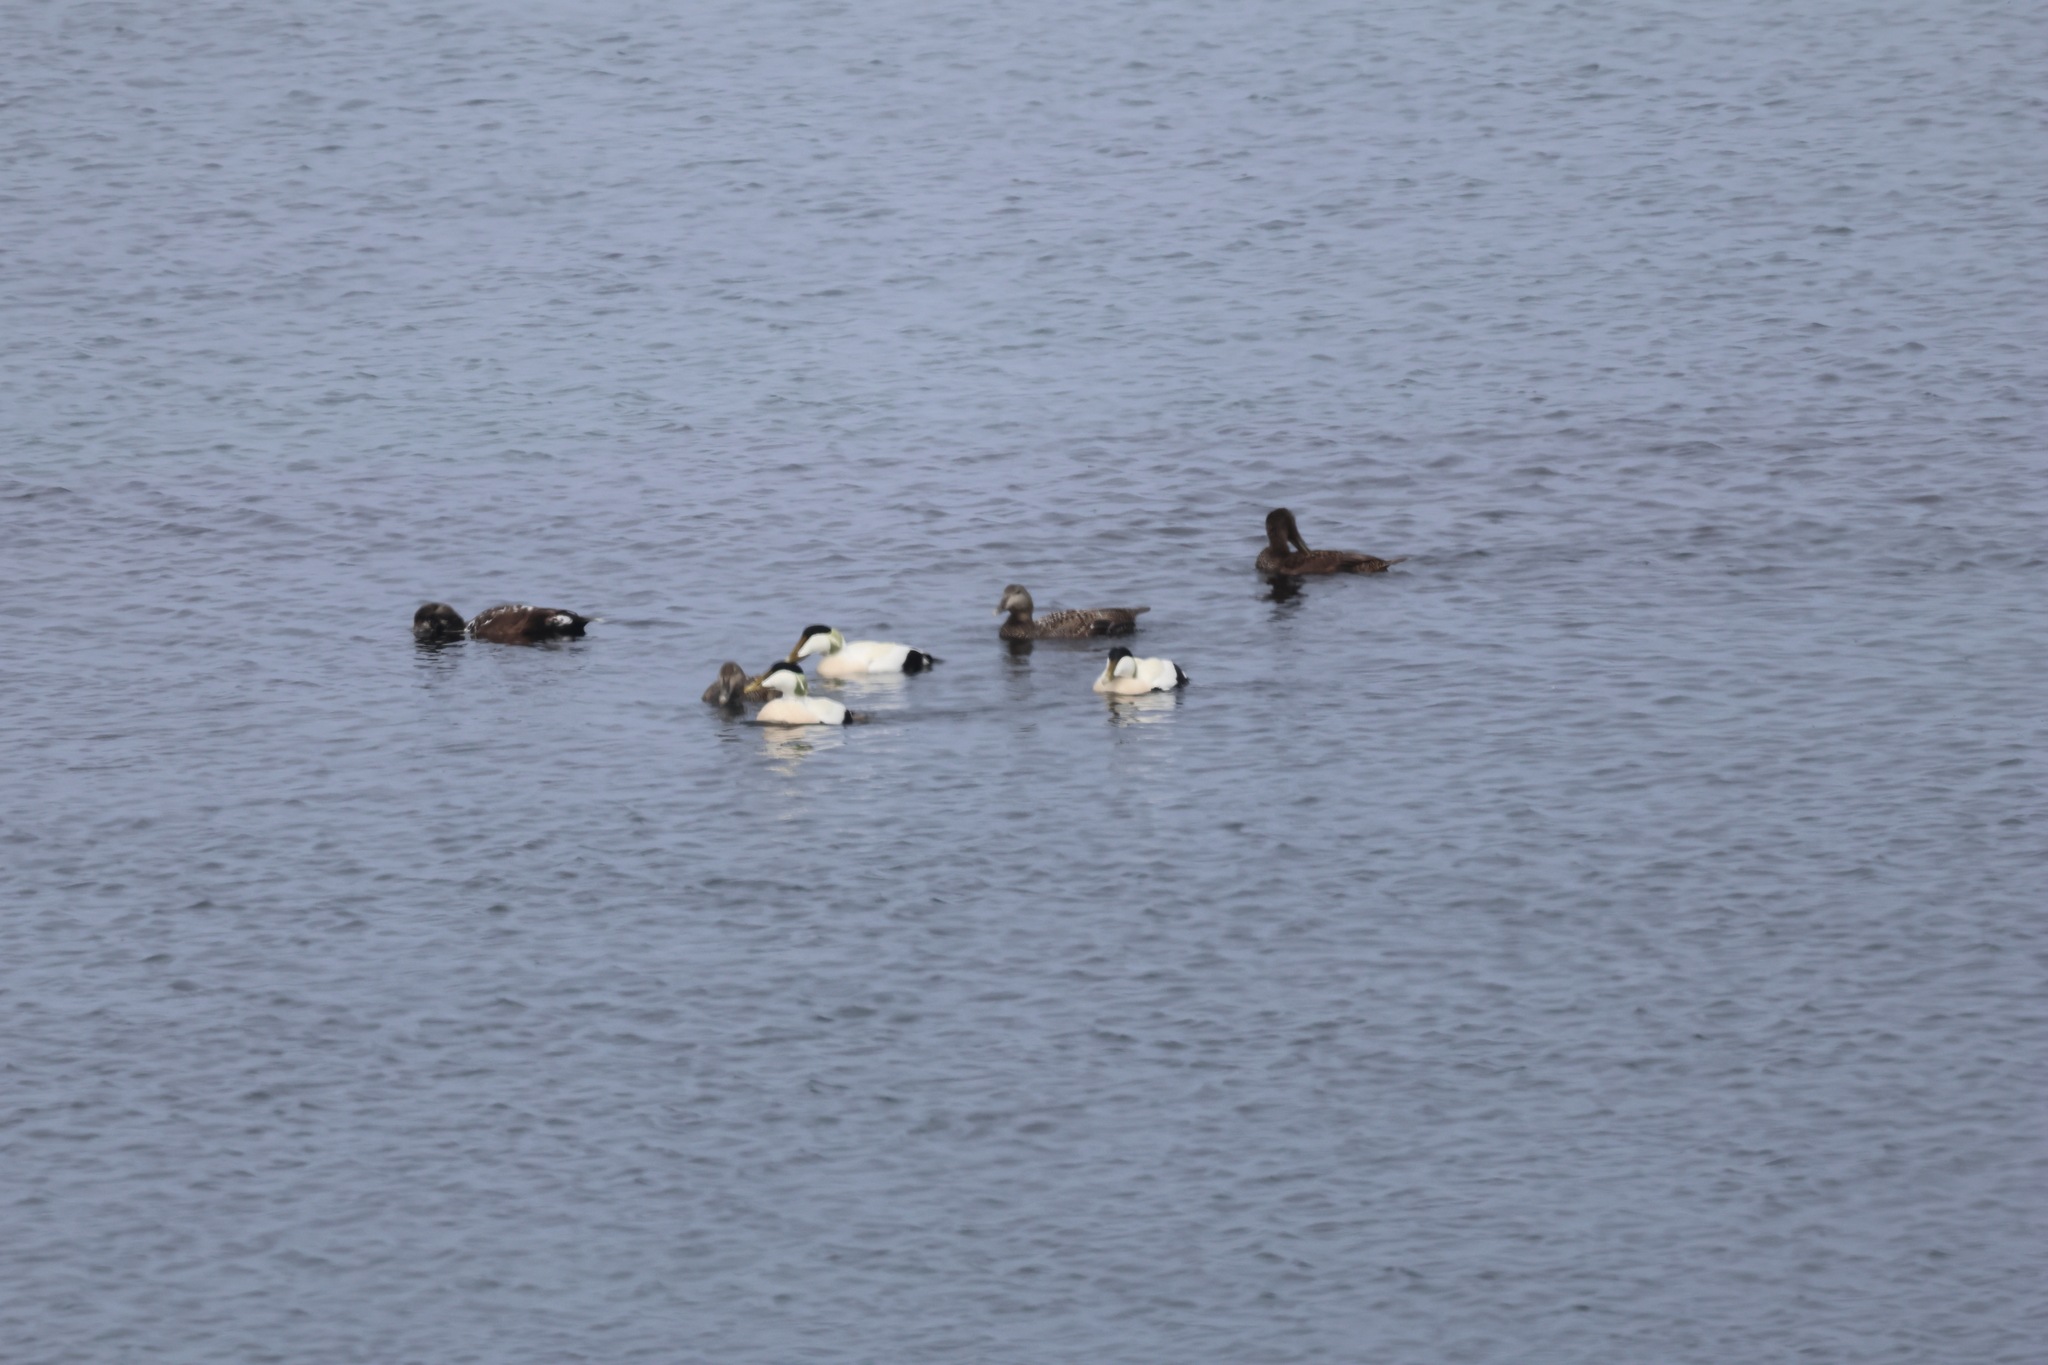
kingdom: Animalia
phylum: Chordata
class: Aves
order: Anseriformes
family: Anatidae
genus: Somateria
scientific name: Somateria mollissima
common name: Common eider
